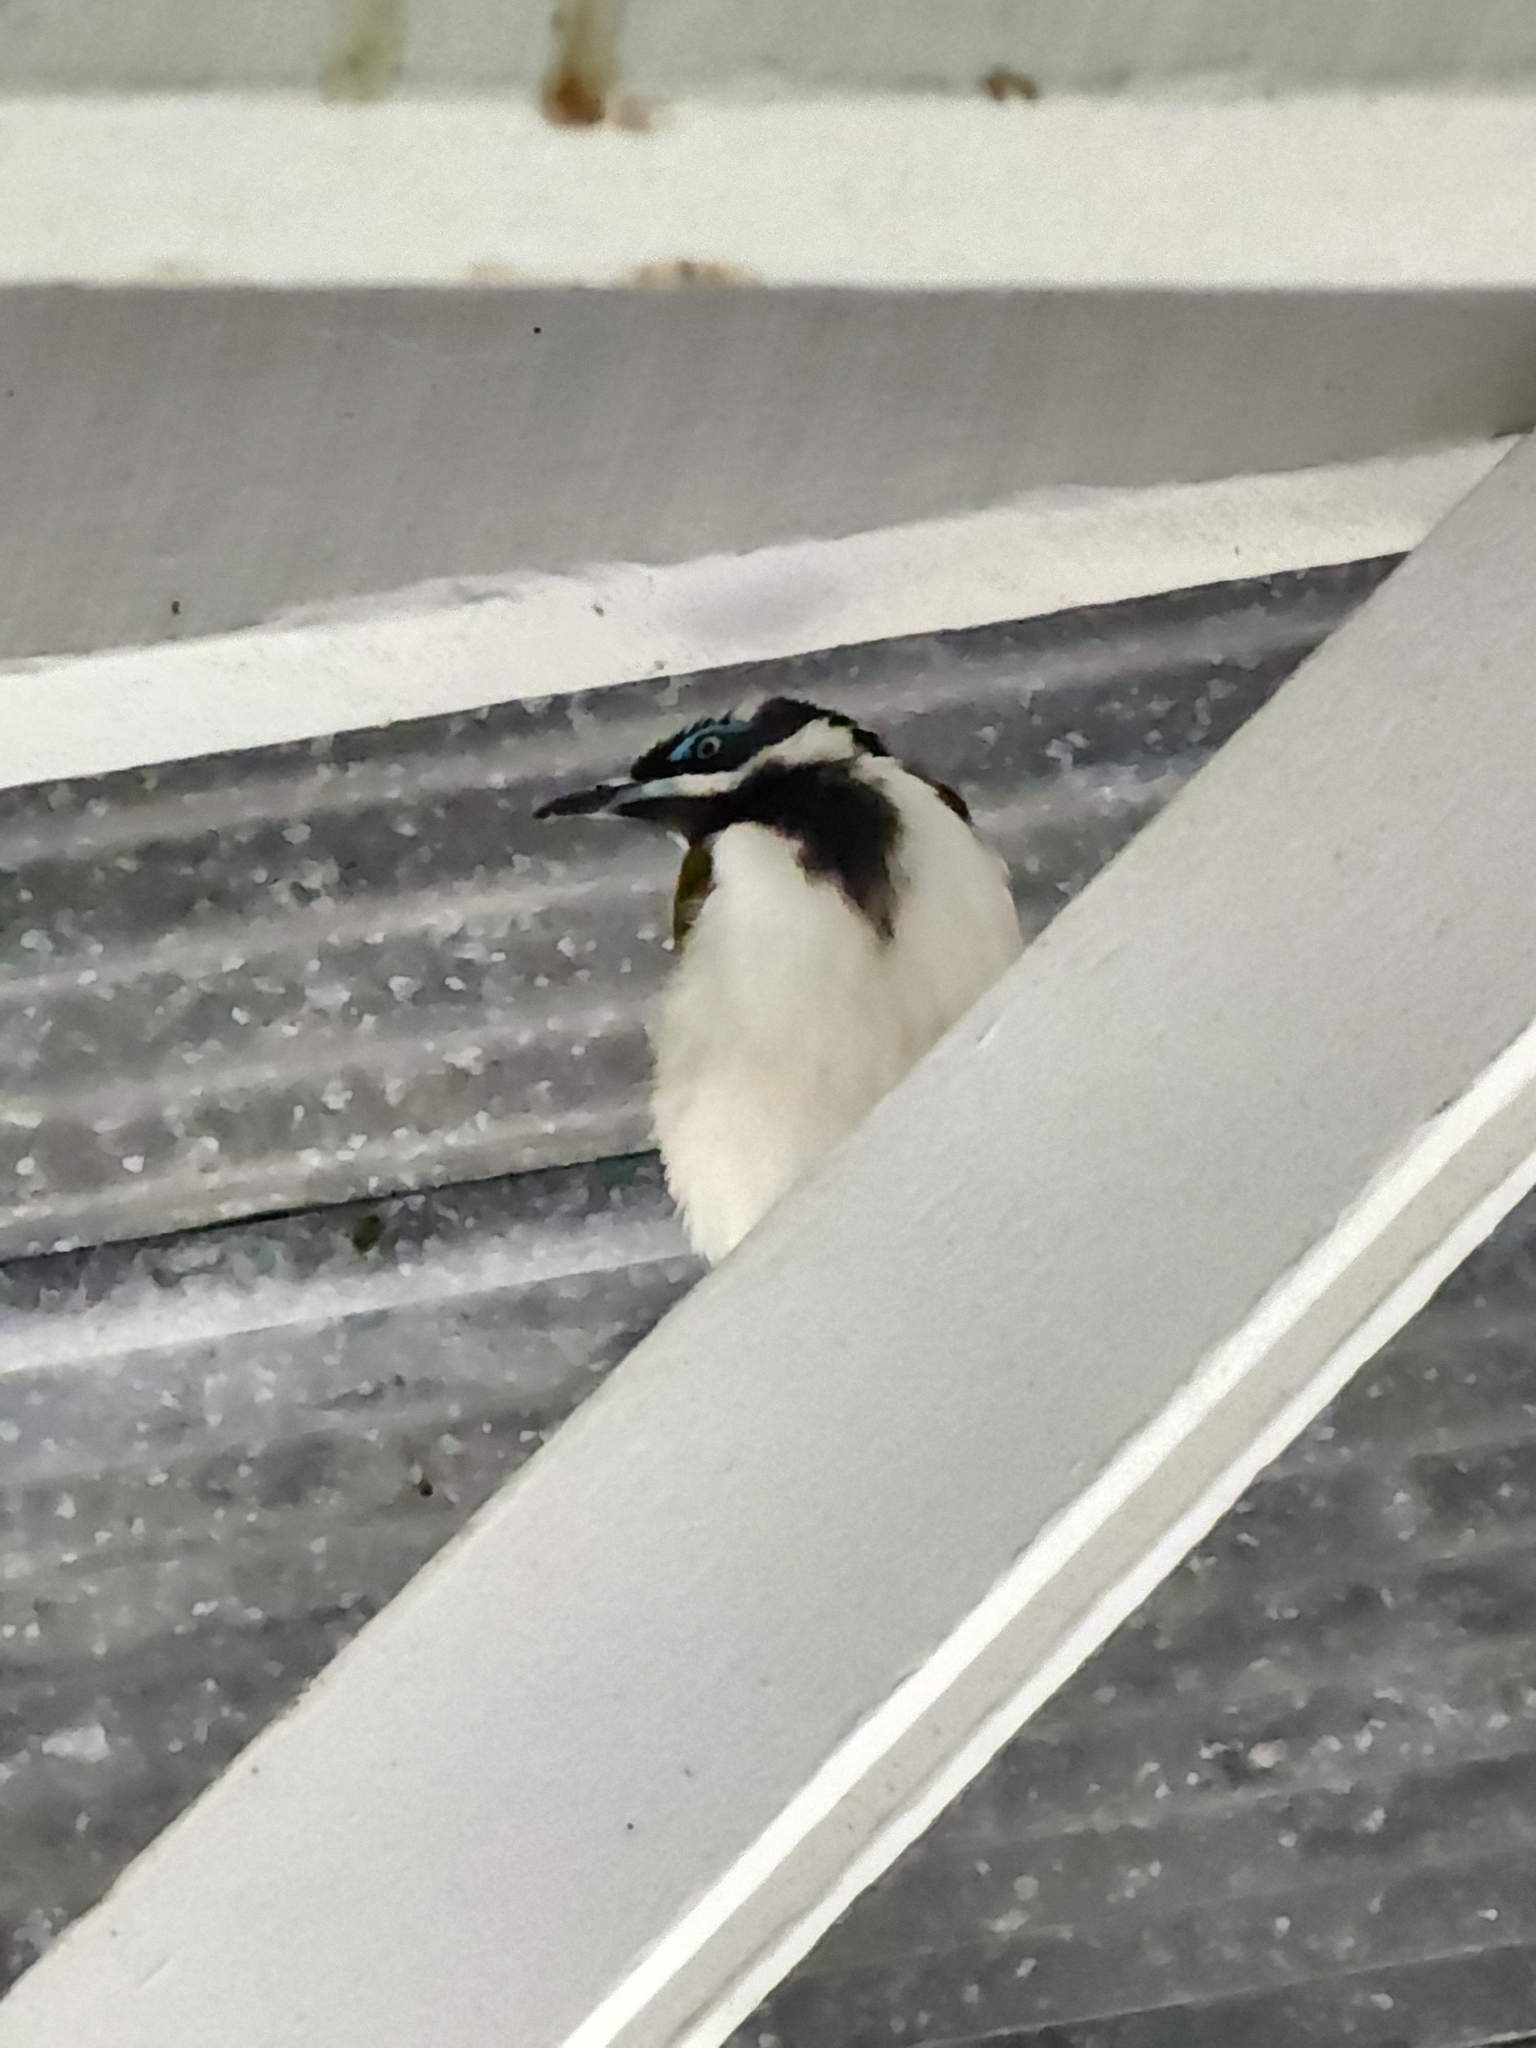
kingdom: Animalia
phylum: Chordata
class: Aves
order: Passeriformes
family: Meliphagidae
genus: Entomyzon
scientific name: Entomyzon cyanotis
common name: Blue-faced honeyeater
